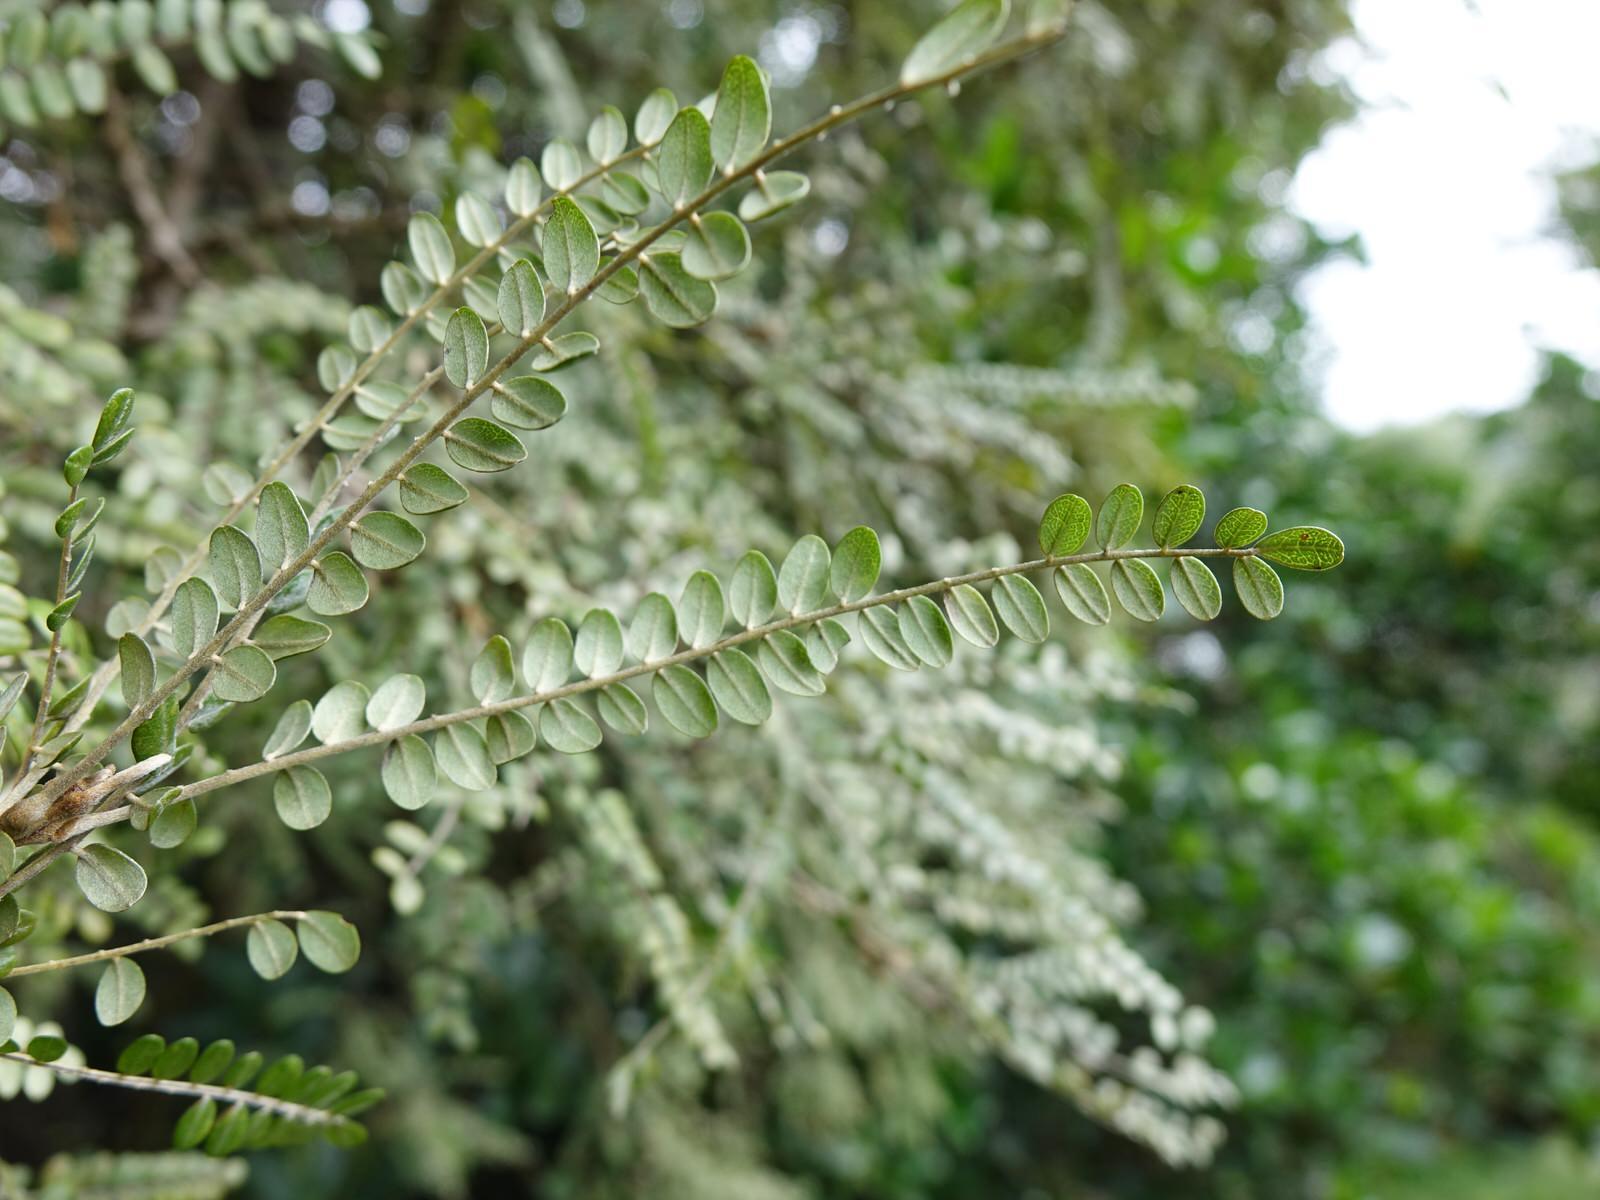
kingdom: Plantae
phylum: Tracheophyta
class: Magnoliopsida
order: Fabales
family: Fabaceae
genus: Sophora
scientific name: Sophora chathamica
